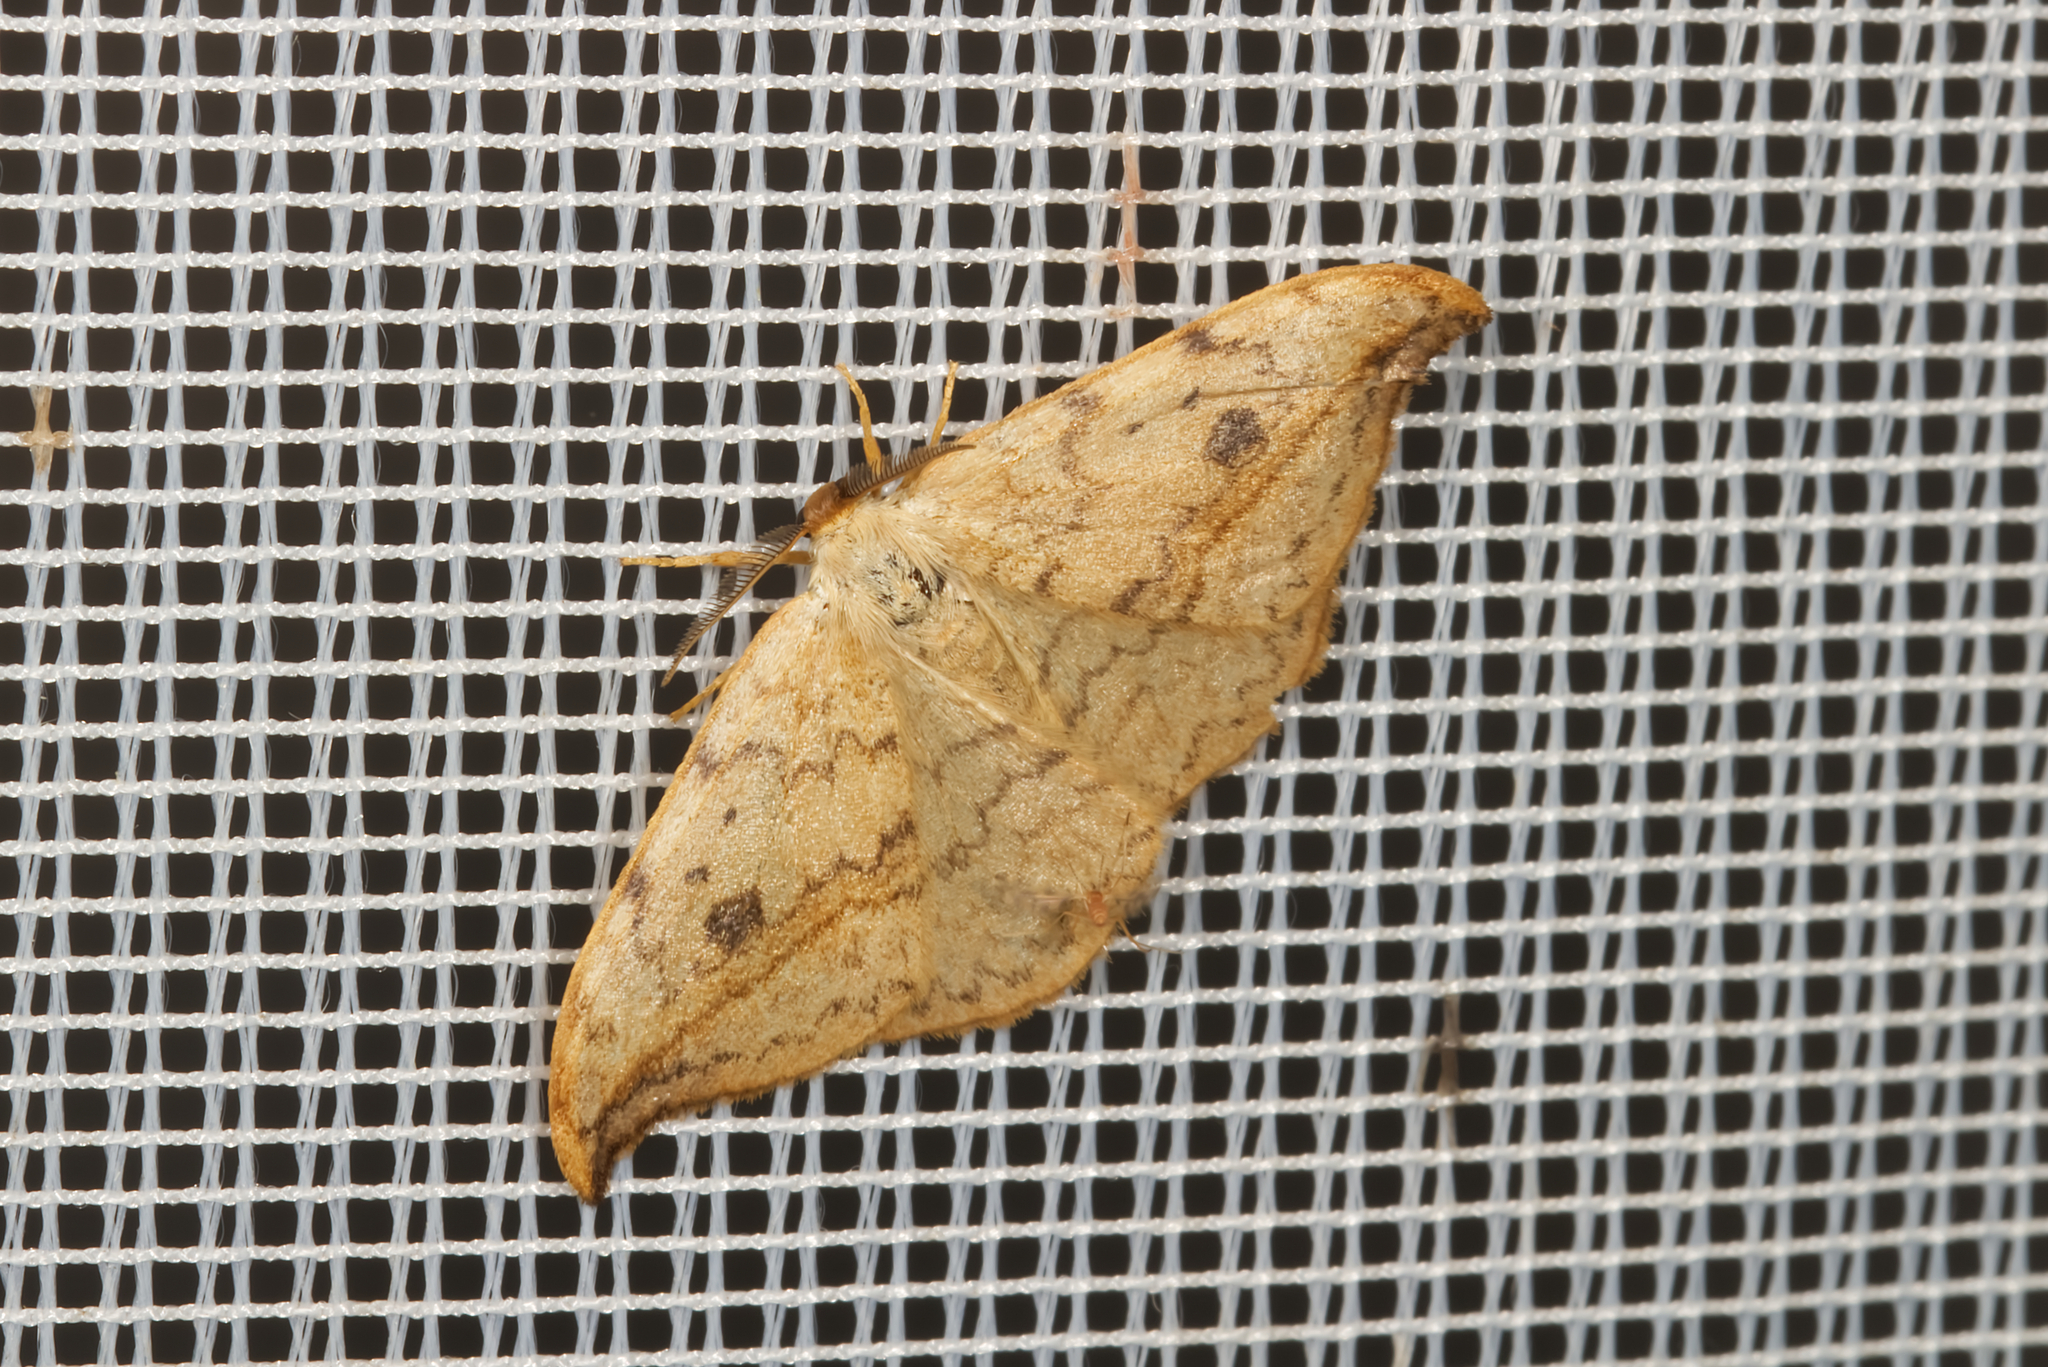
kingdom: Animalia
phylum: Arthropoda
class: Insecta
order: Lepidoptera
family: Drepanidae
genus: Drepana
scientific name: Drepana falcataria
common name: Pebble hook-tip
